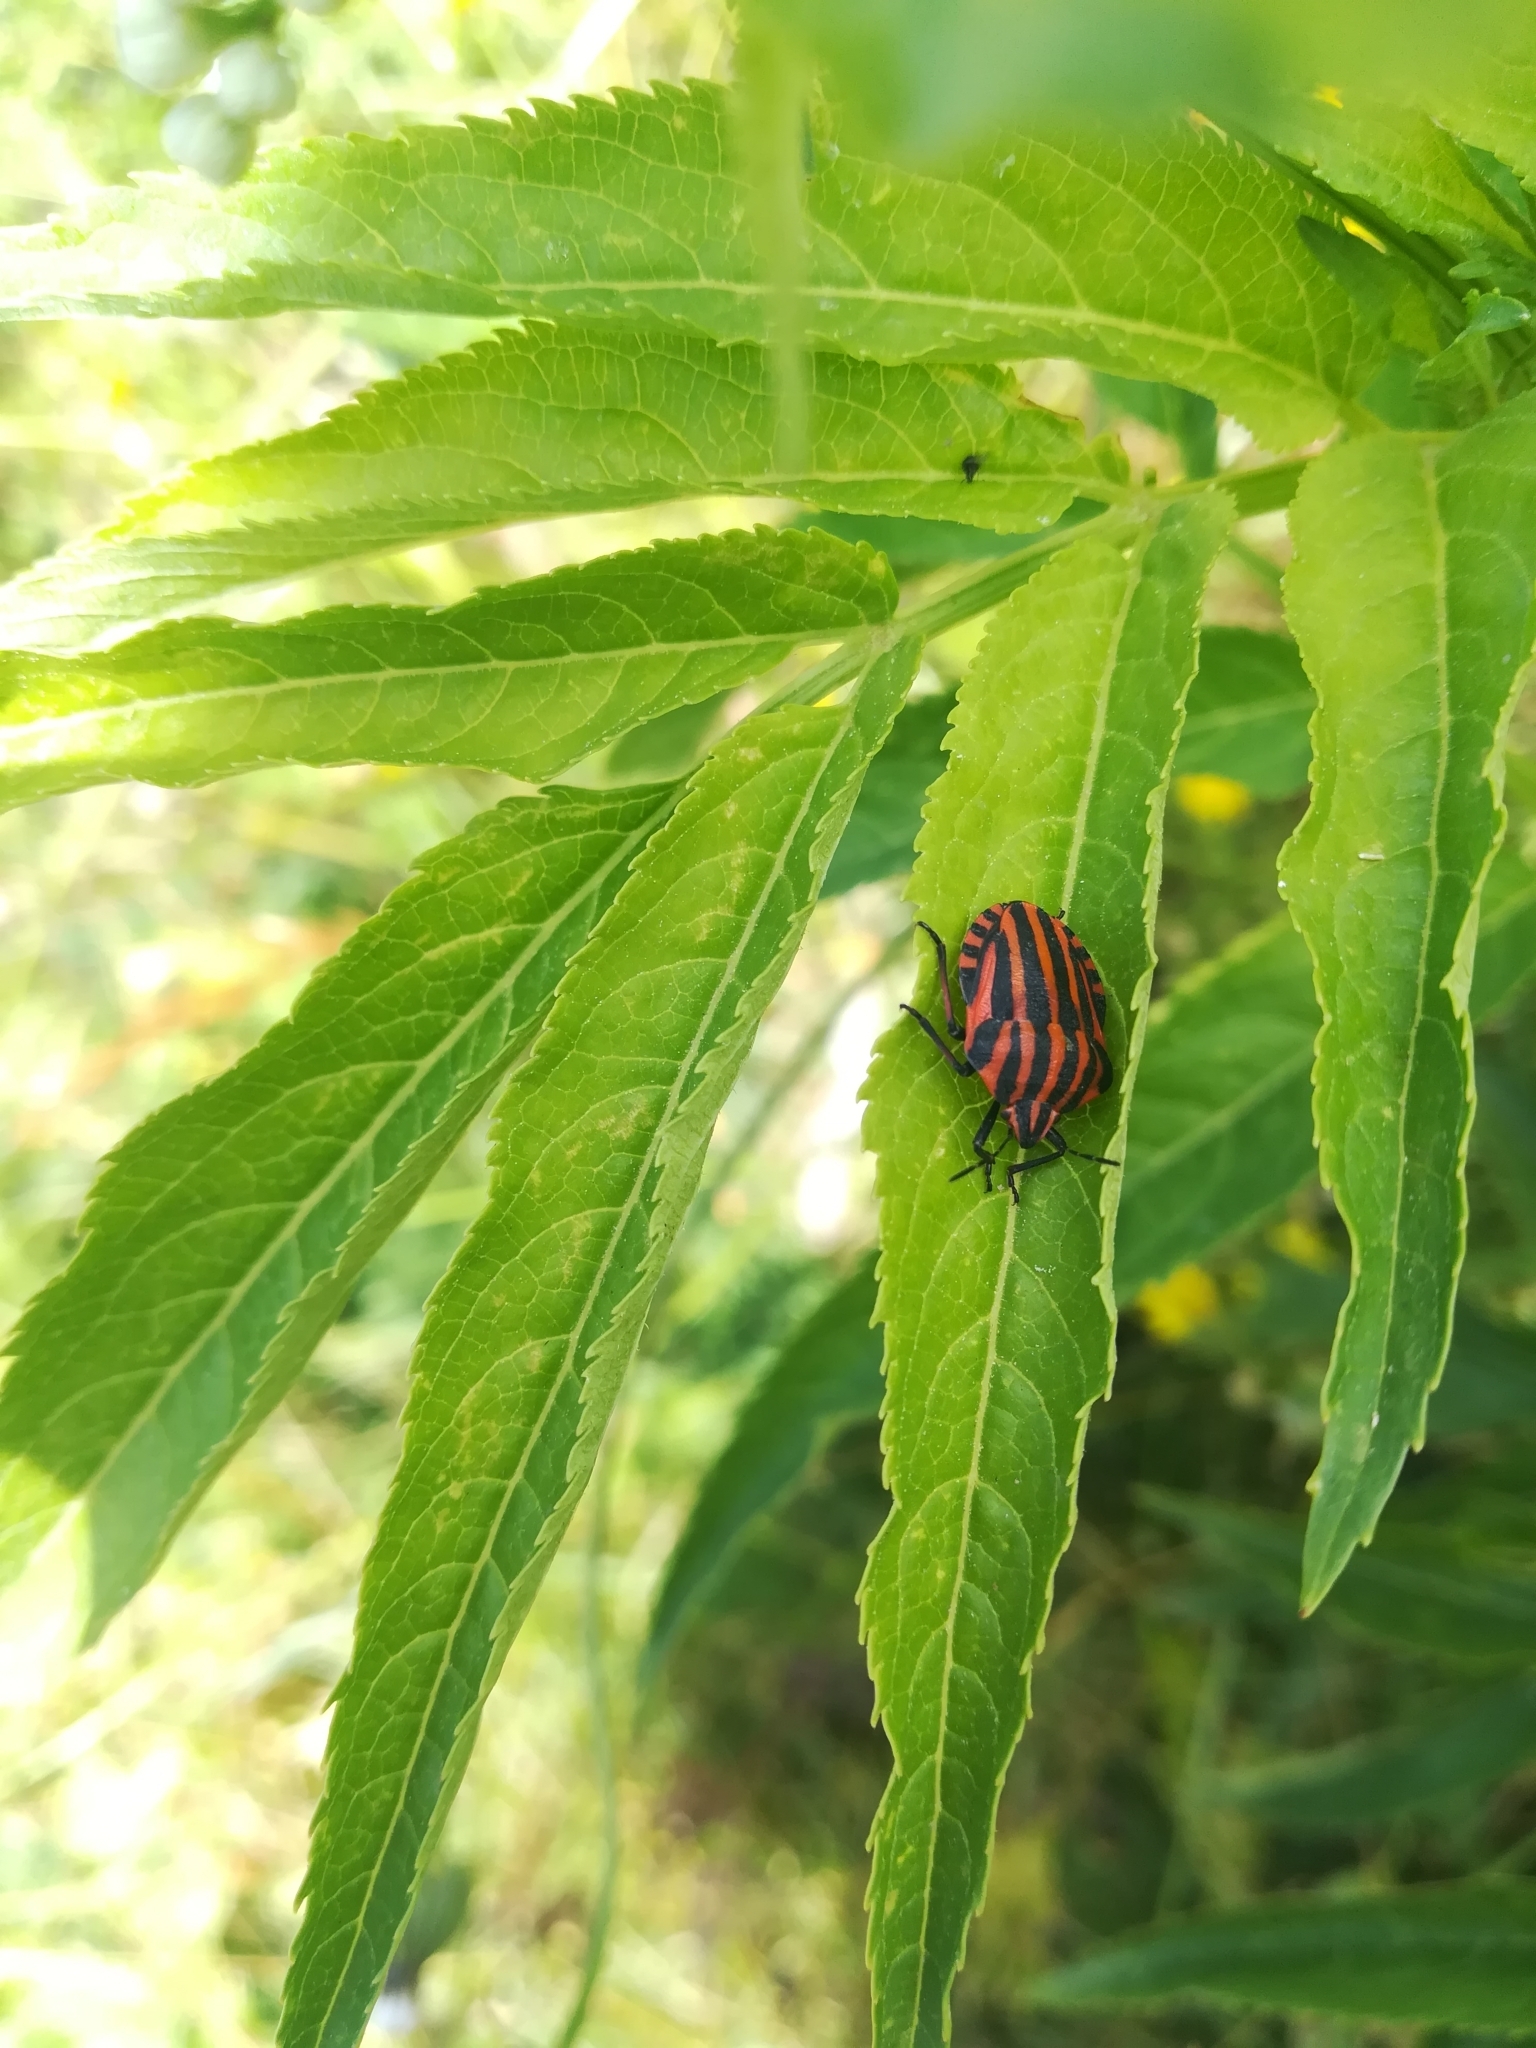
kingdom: Animalia
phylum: Arthropoda
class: Insecta
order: Hemiptera
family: Pentatomidae
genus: Graphosoma
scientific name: Graphosoma italicum
